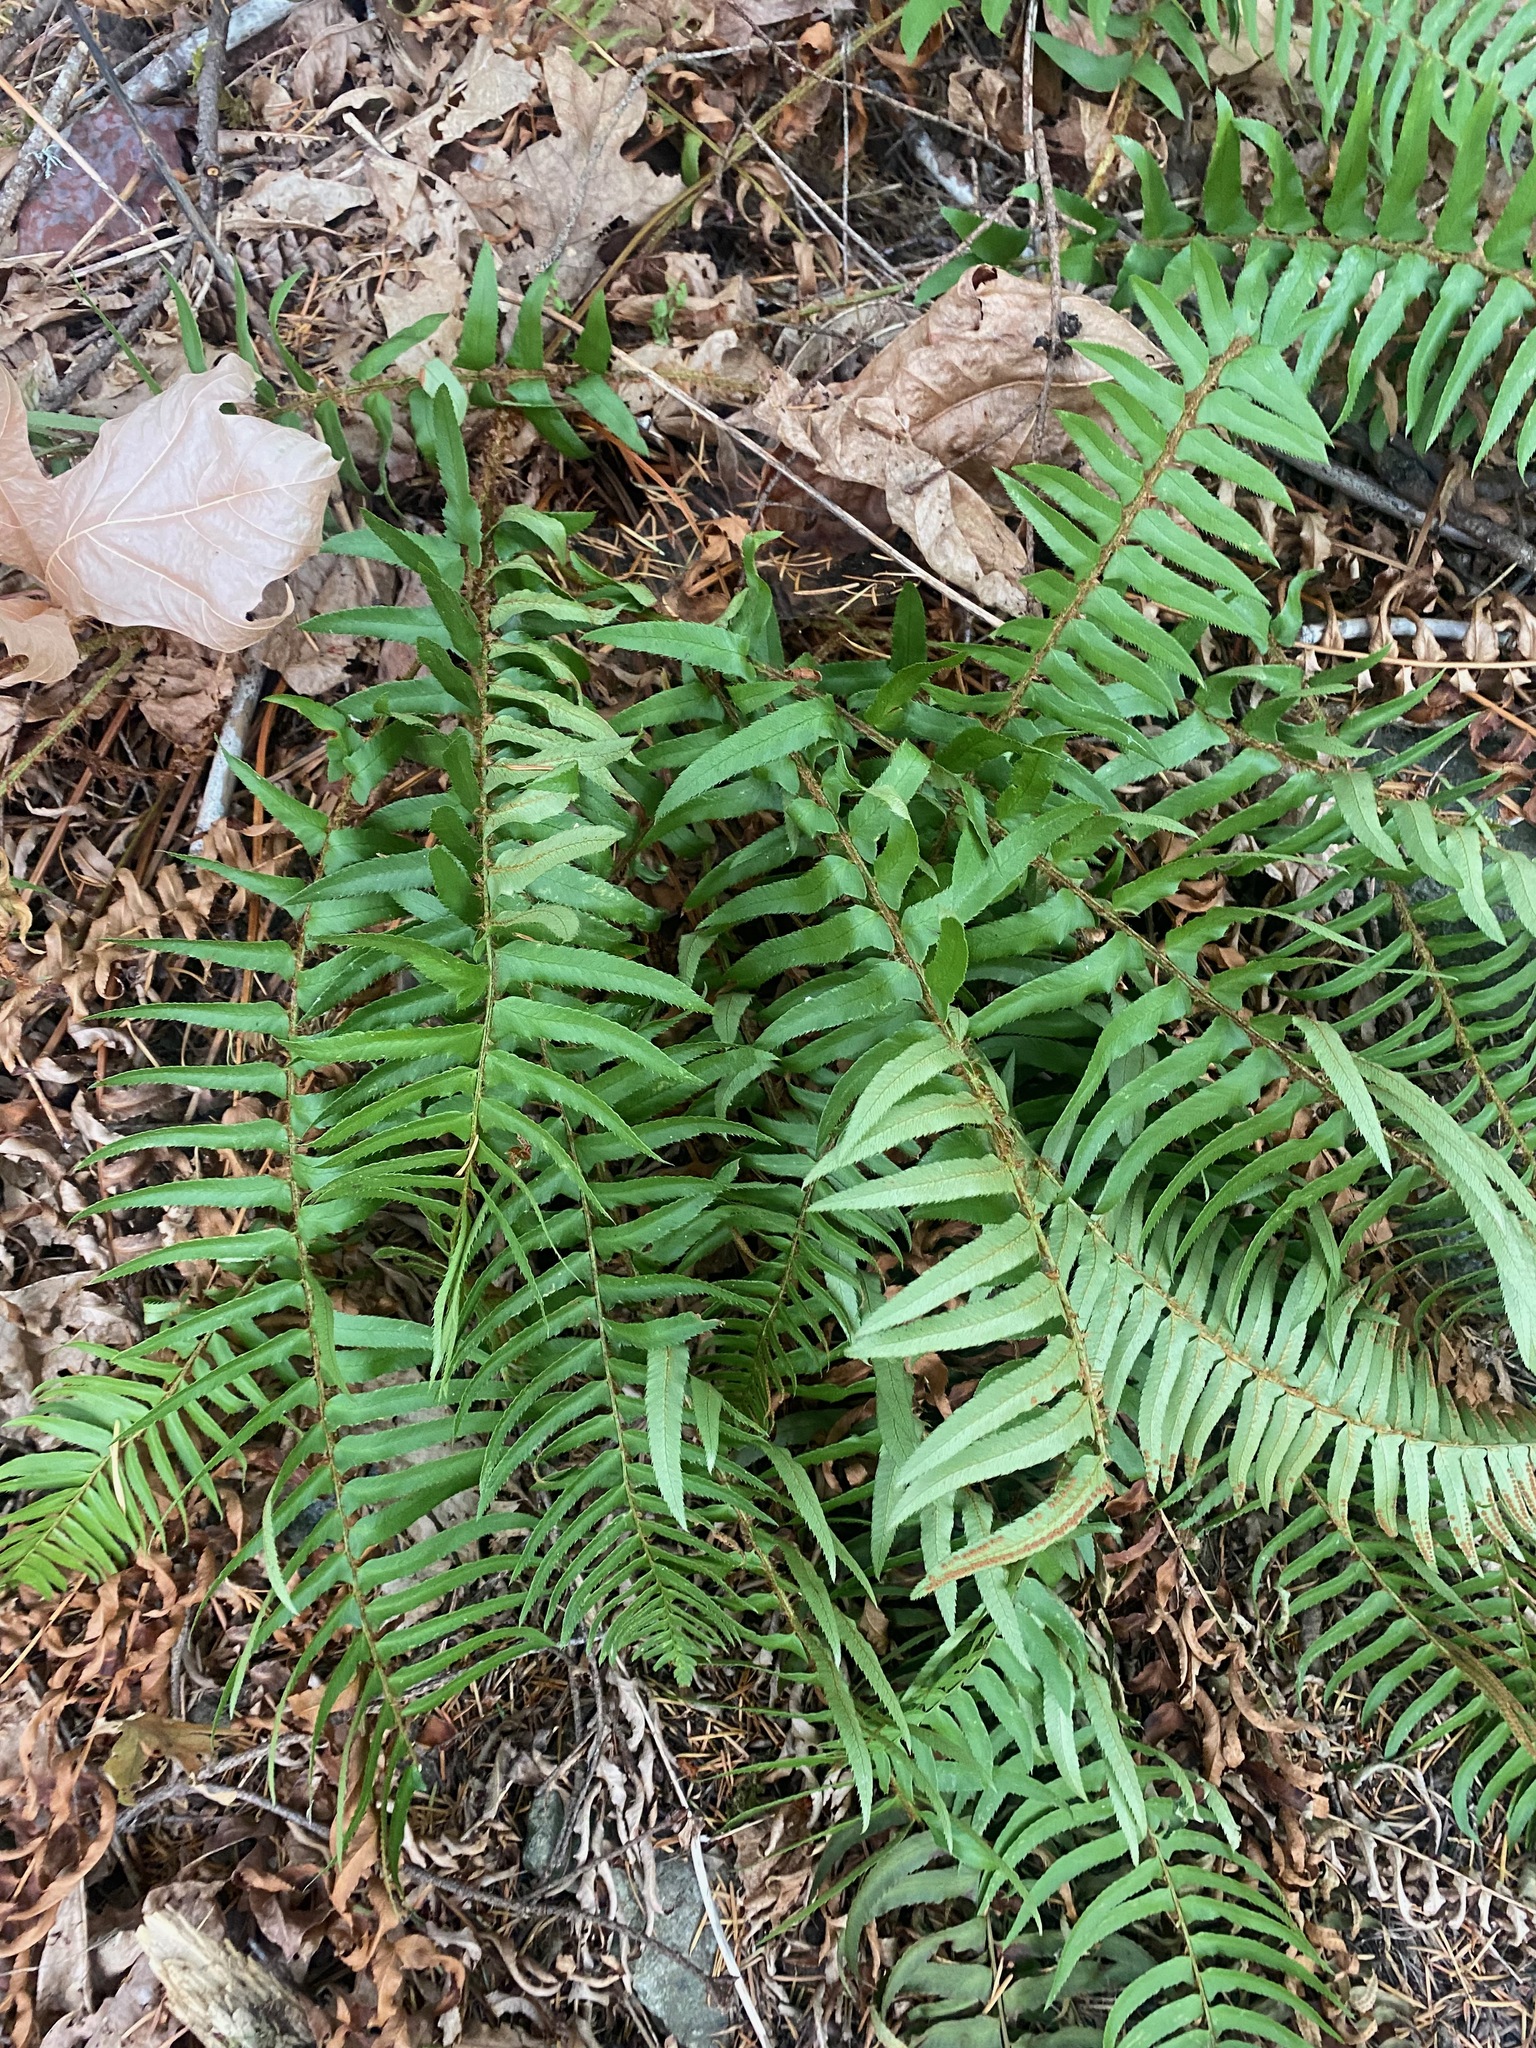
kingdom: Plantae
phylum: Tracheophyta
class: Polypodiopsida
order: Polypodiales
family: Dryopteridaceae
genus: Polystichum
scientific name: Polystichum munitum
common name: Western sword-fern
